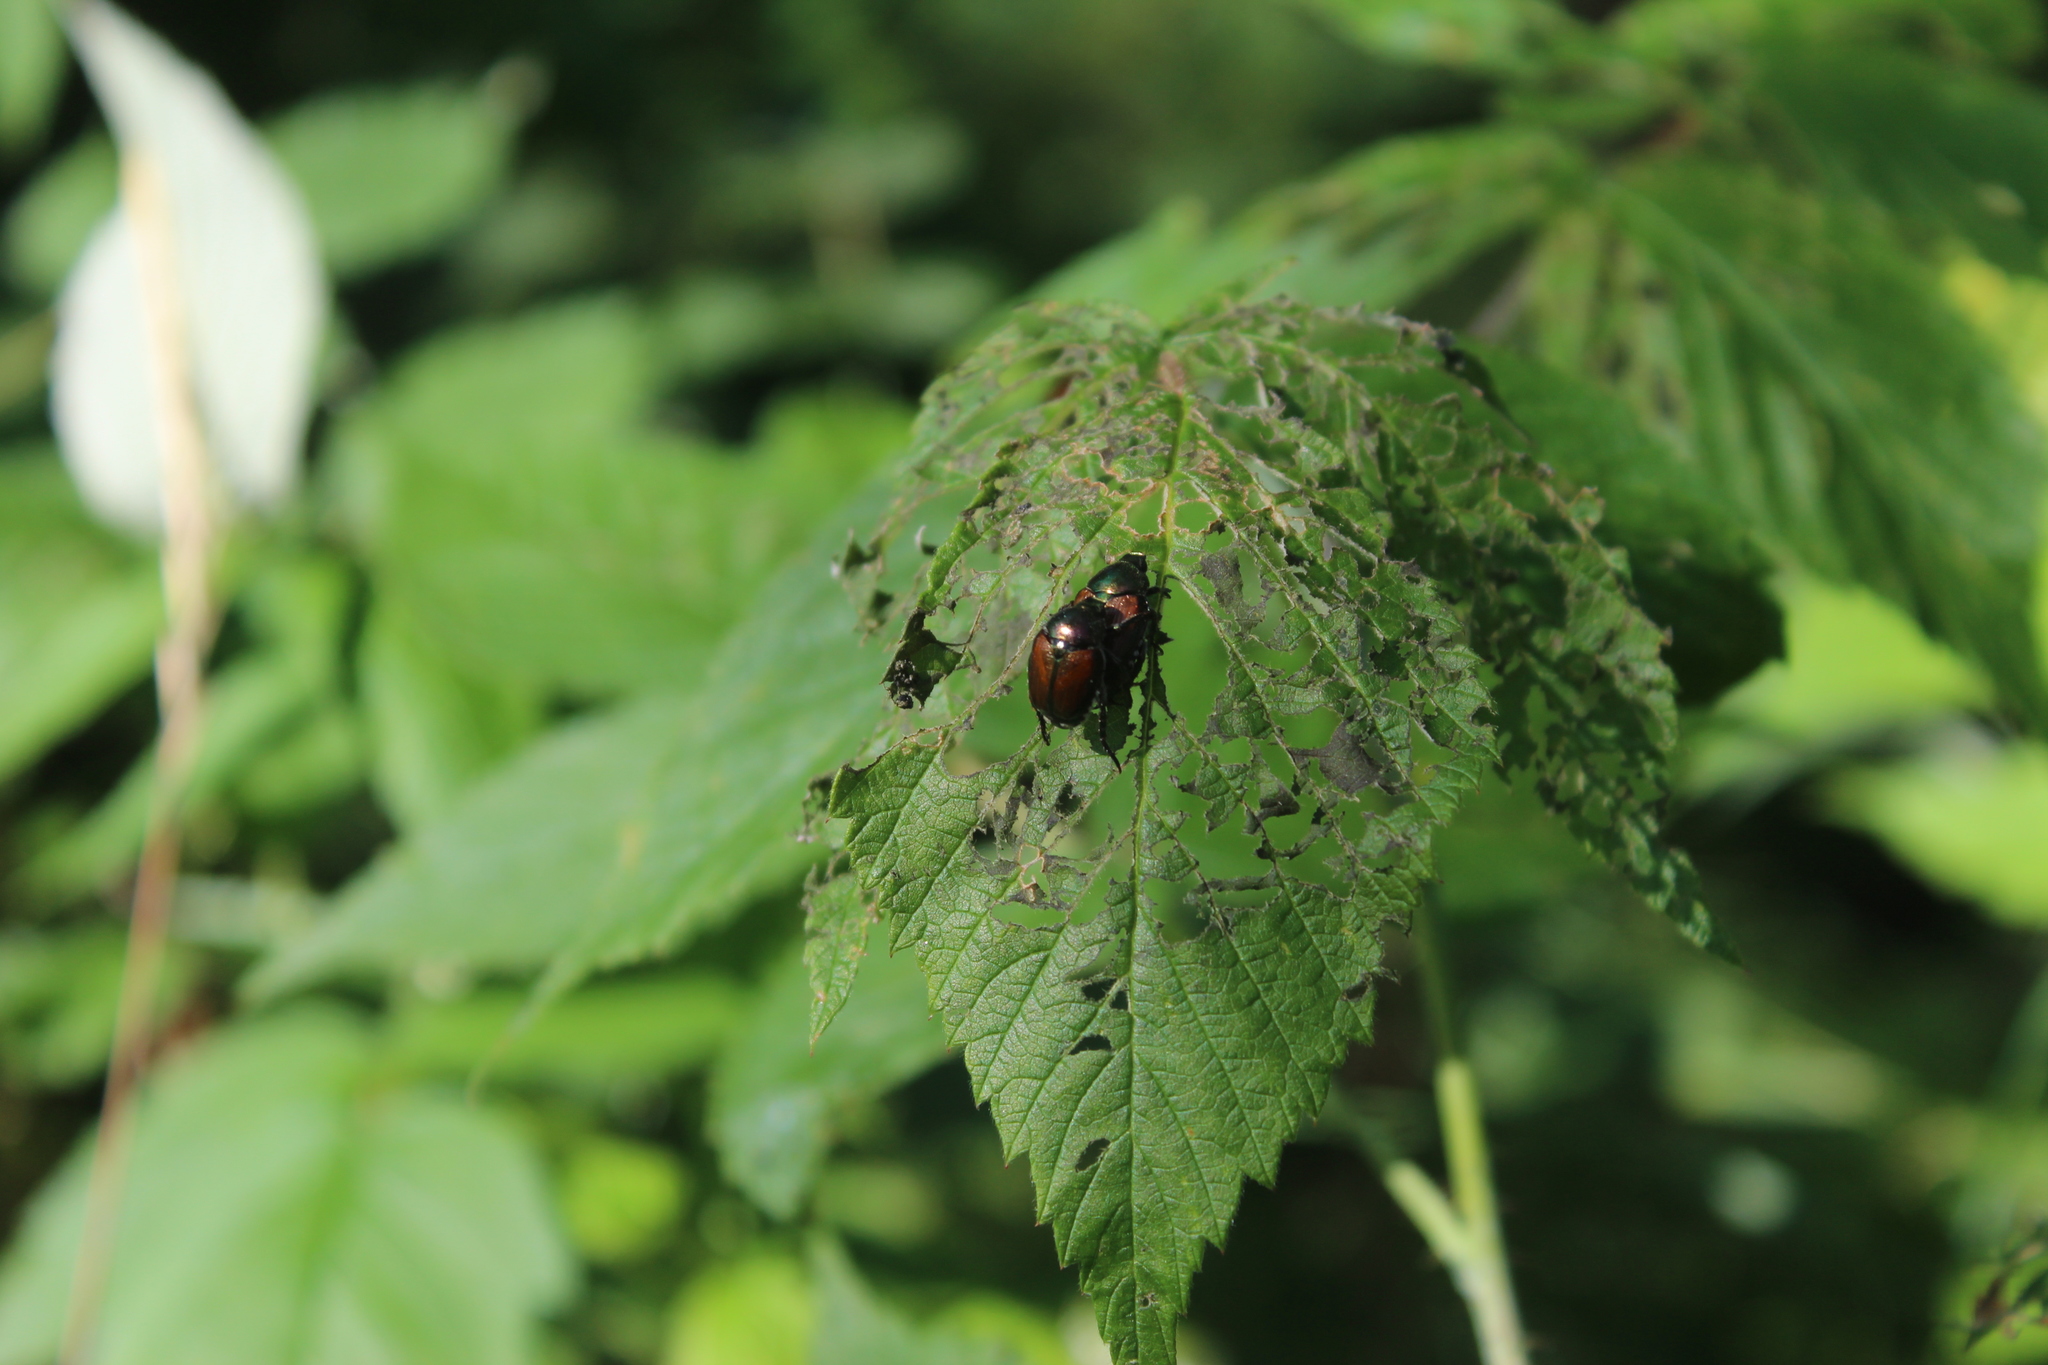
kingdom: Animalia
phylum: Arthropoda
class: Insecta
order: Coleoptera
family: Scarabaeidae
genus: Popillia
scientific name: Popillia japonica
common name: Japanese beetle
